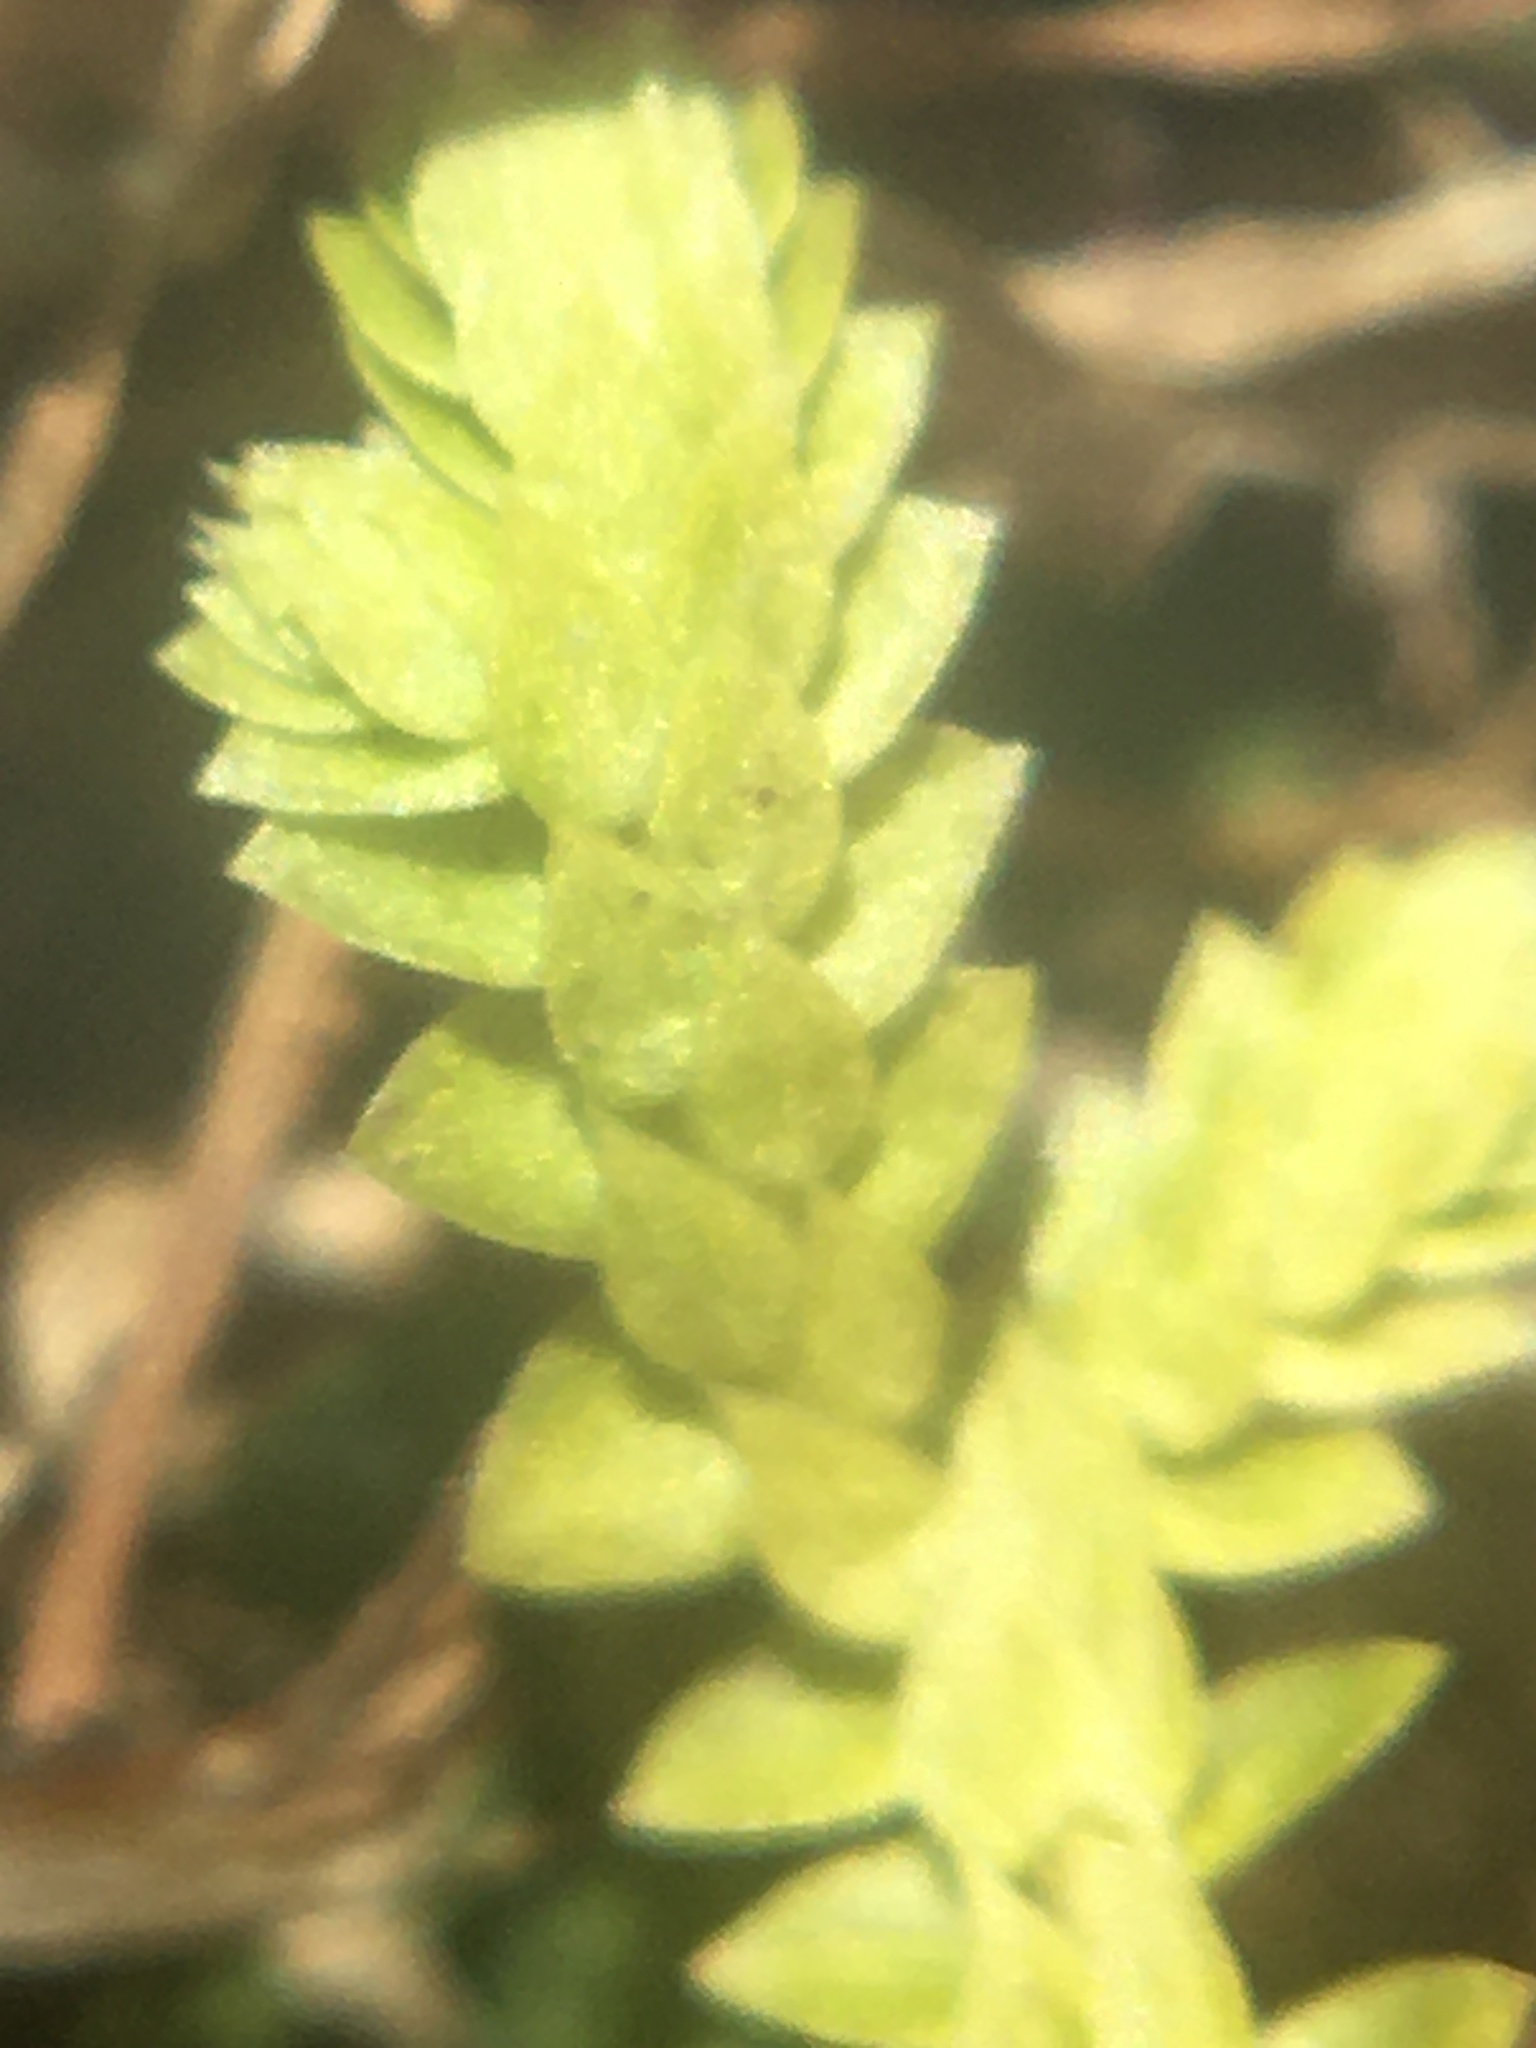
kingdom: Plantae
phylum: Tracheophyta
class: Lycopodiopsida
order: Selaginellales
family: Selaginellaceae
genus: Selaginella
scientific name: Selaginella apoda
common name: Creeping spikemoss
